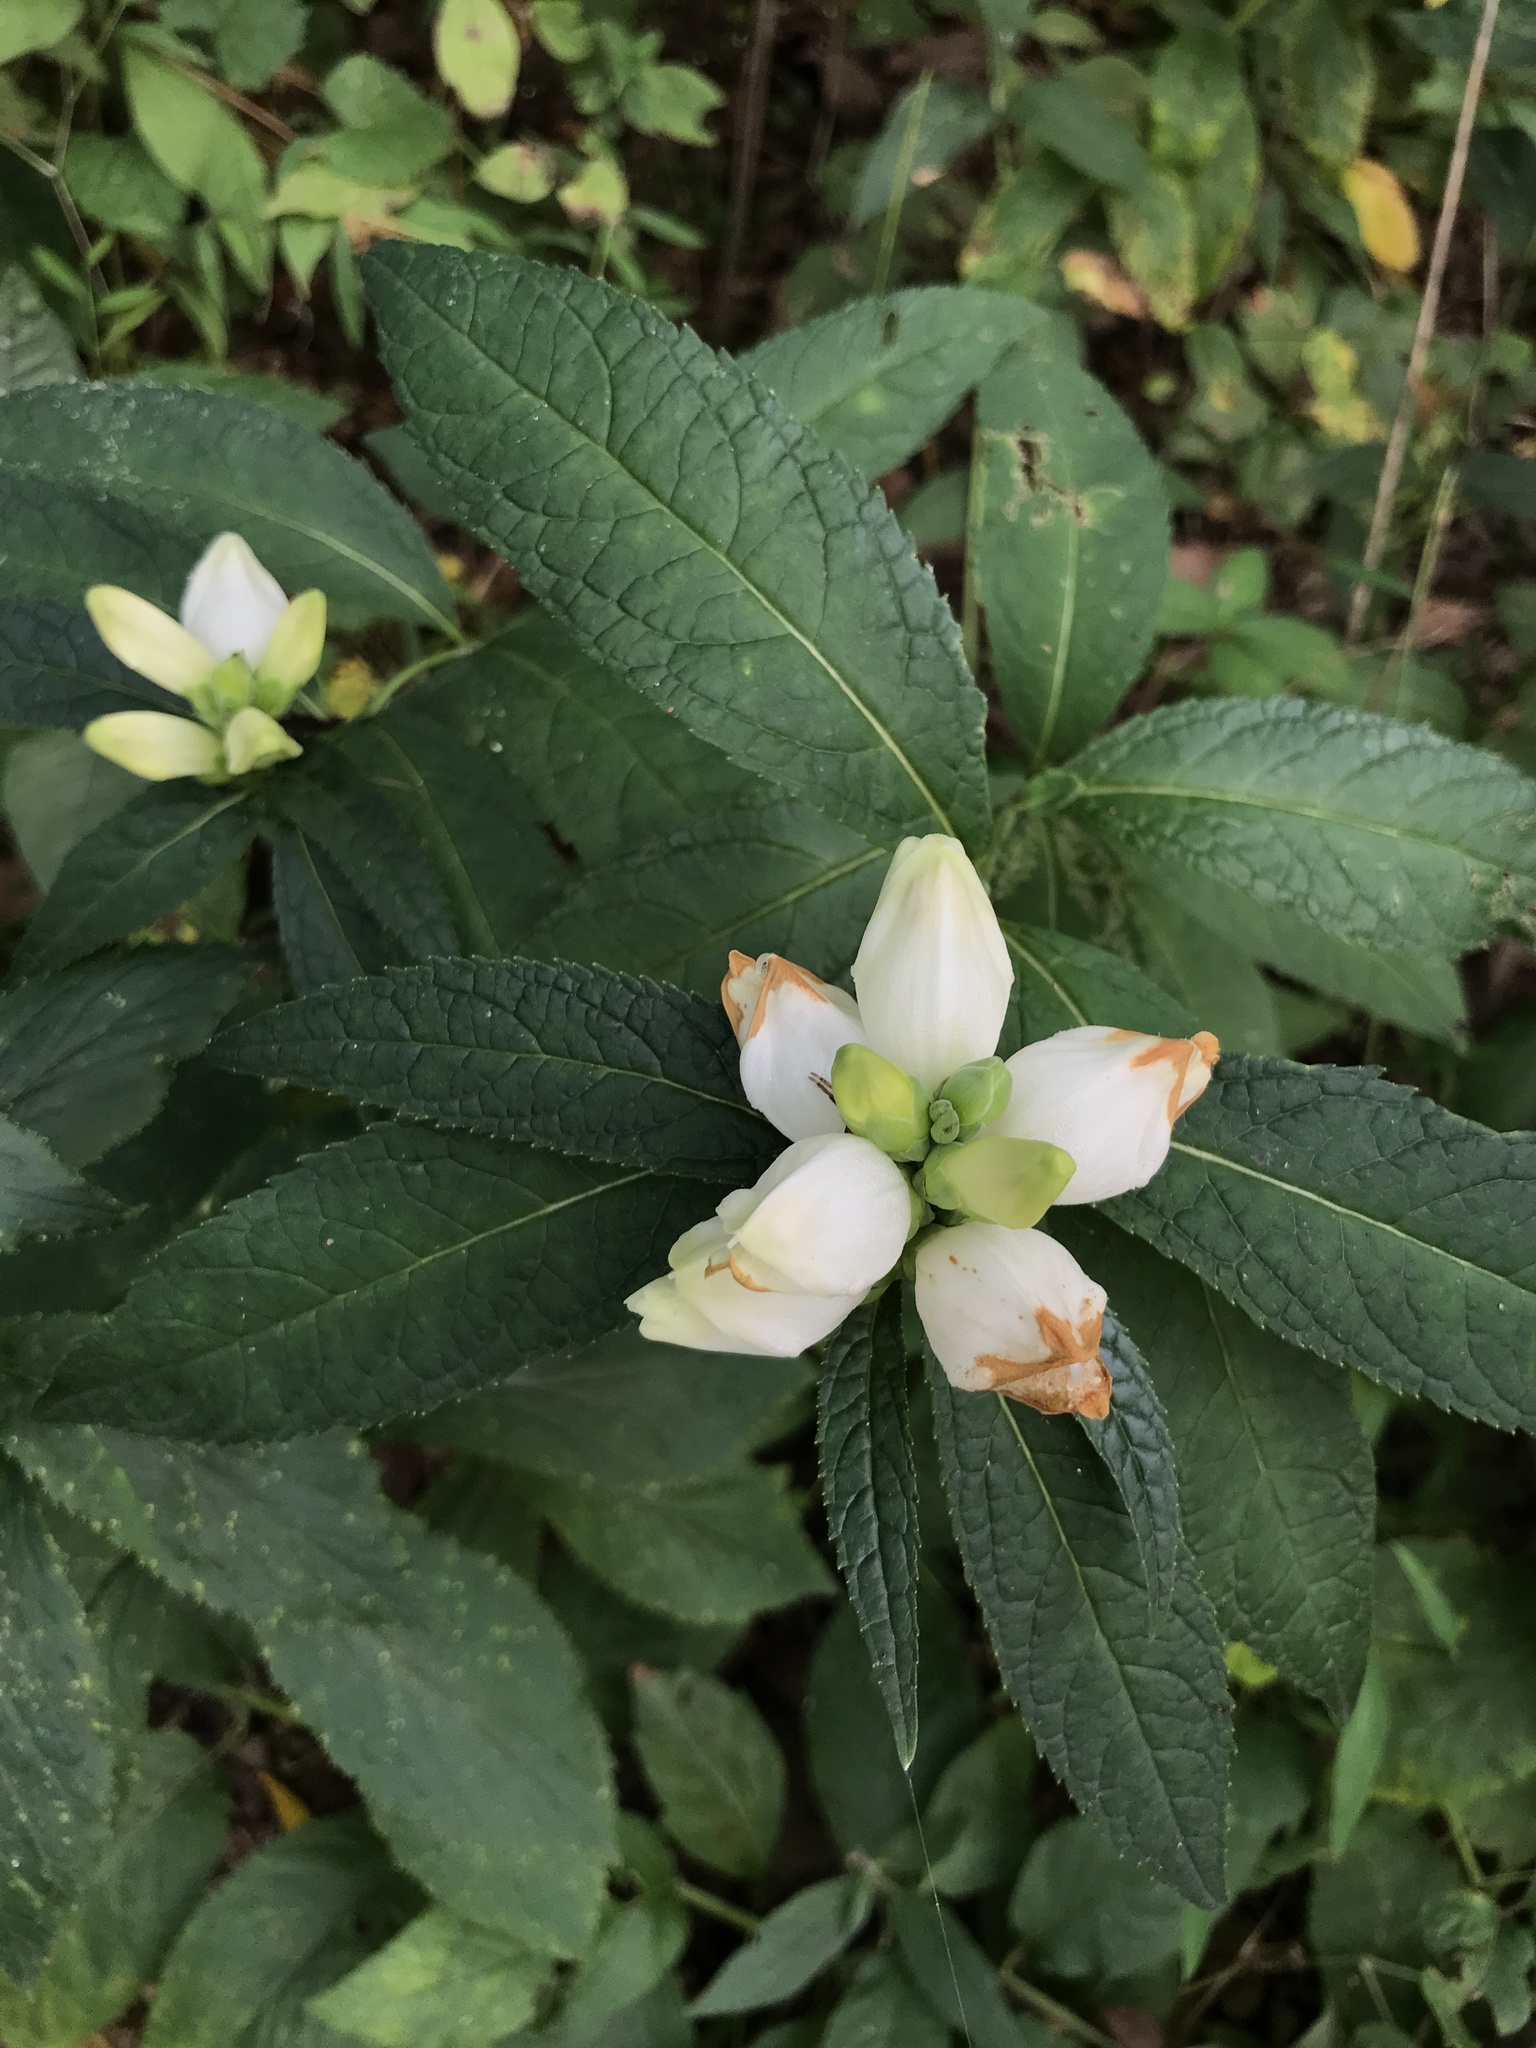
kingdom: Plantae
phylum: Tracheophyta
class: Magnoliopsida
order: Lamiales
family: Plantaginaceae
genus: Chelone
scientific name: Chelone glabra
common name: Snakehead
